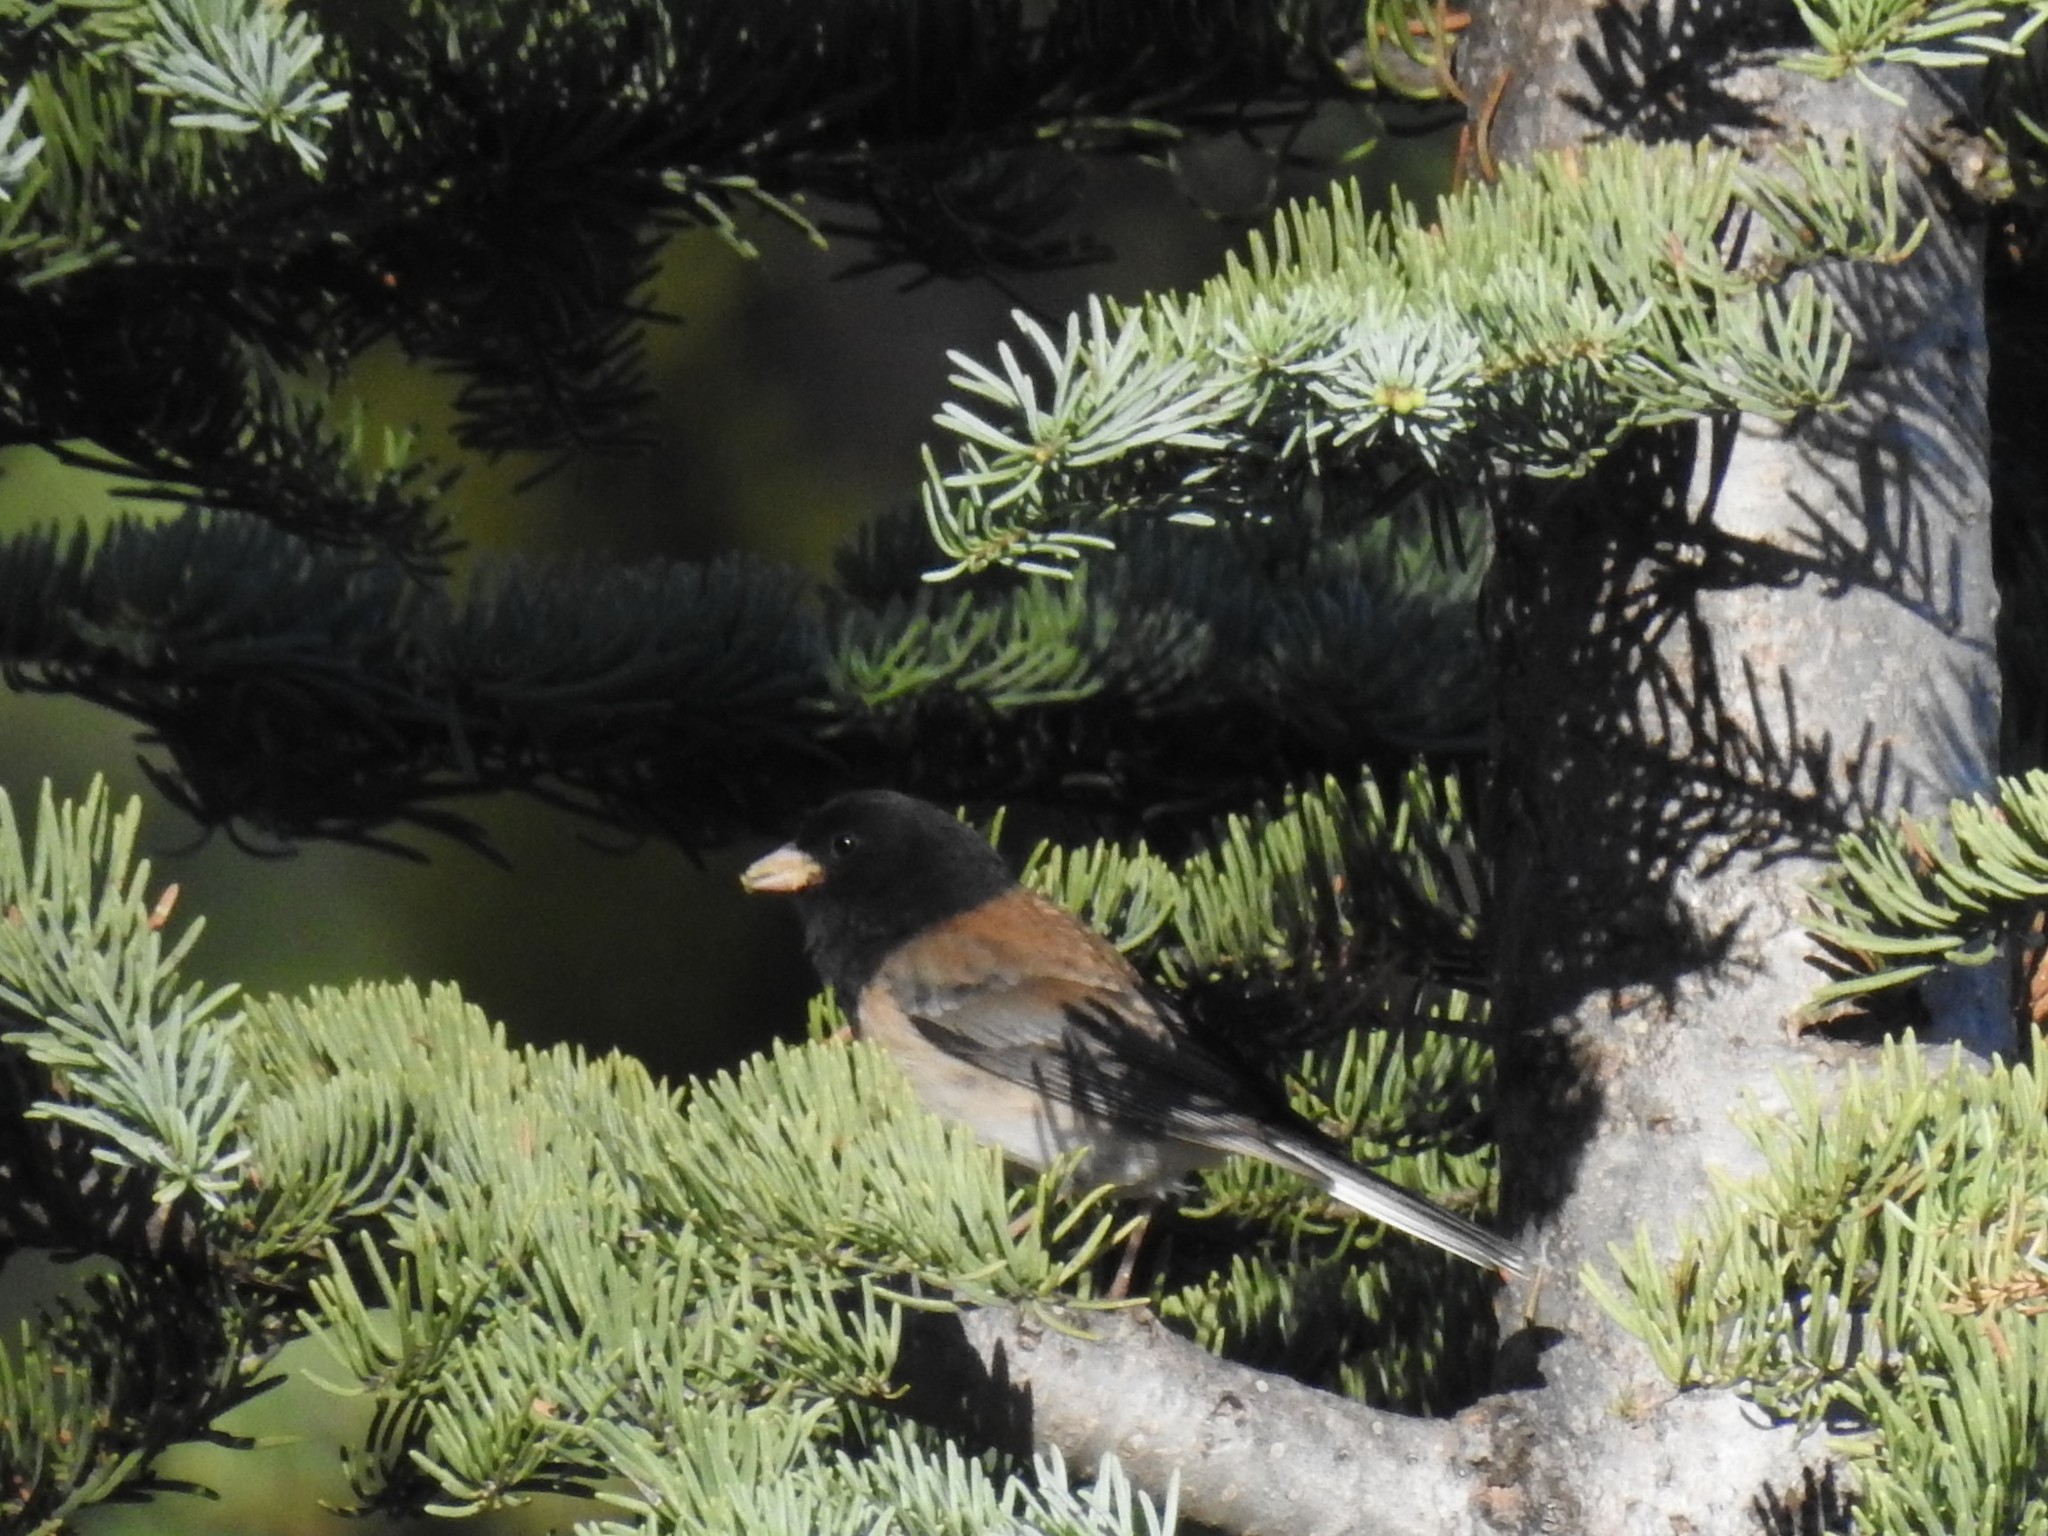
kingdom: Animalia
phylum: Chordata
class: Aves
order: Passeriformes
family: Passerellidae
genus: Junco
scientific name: Junco hyemalis
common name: Dark-eyed junco
